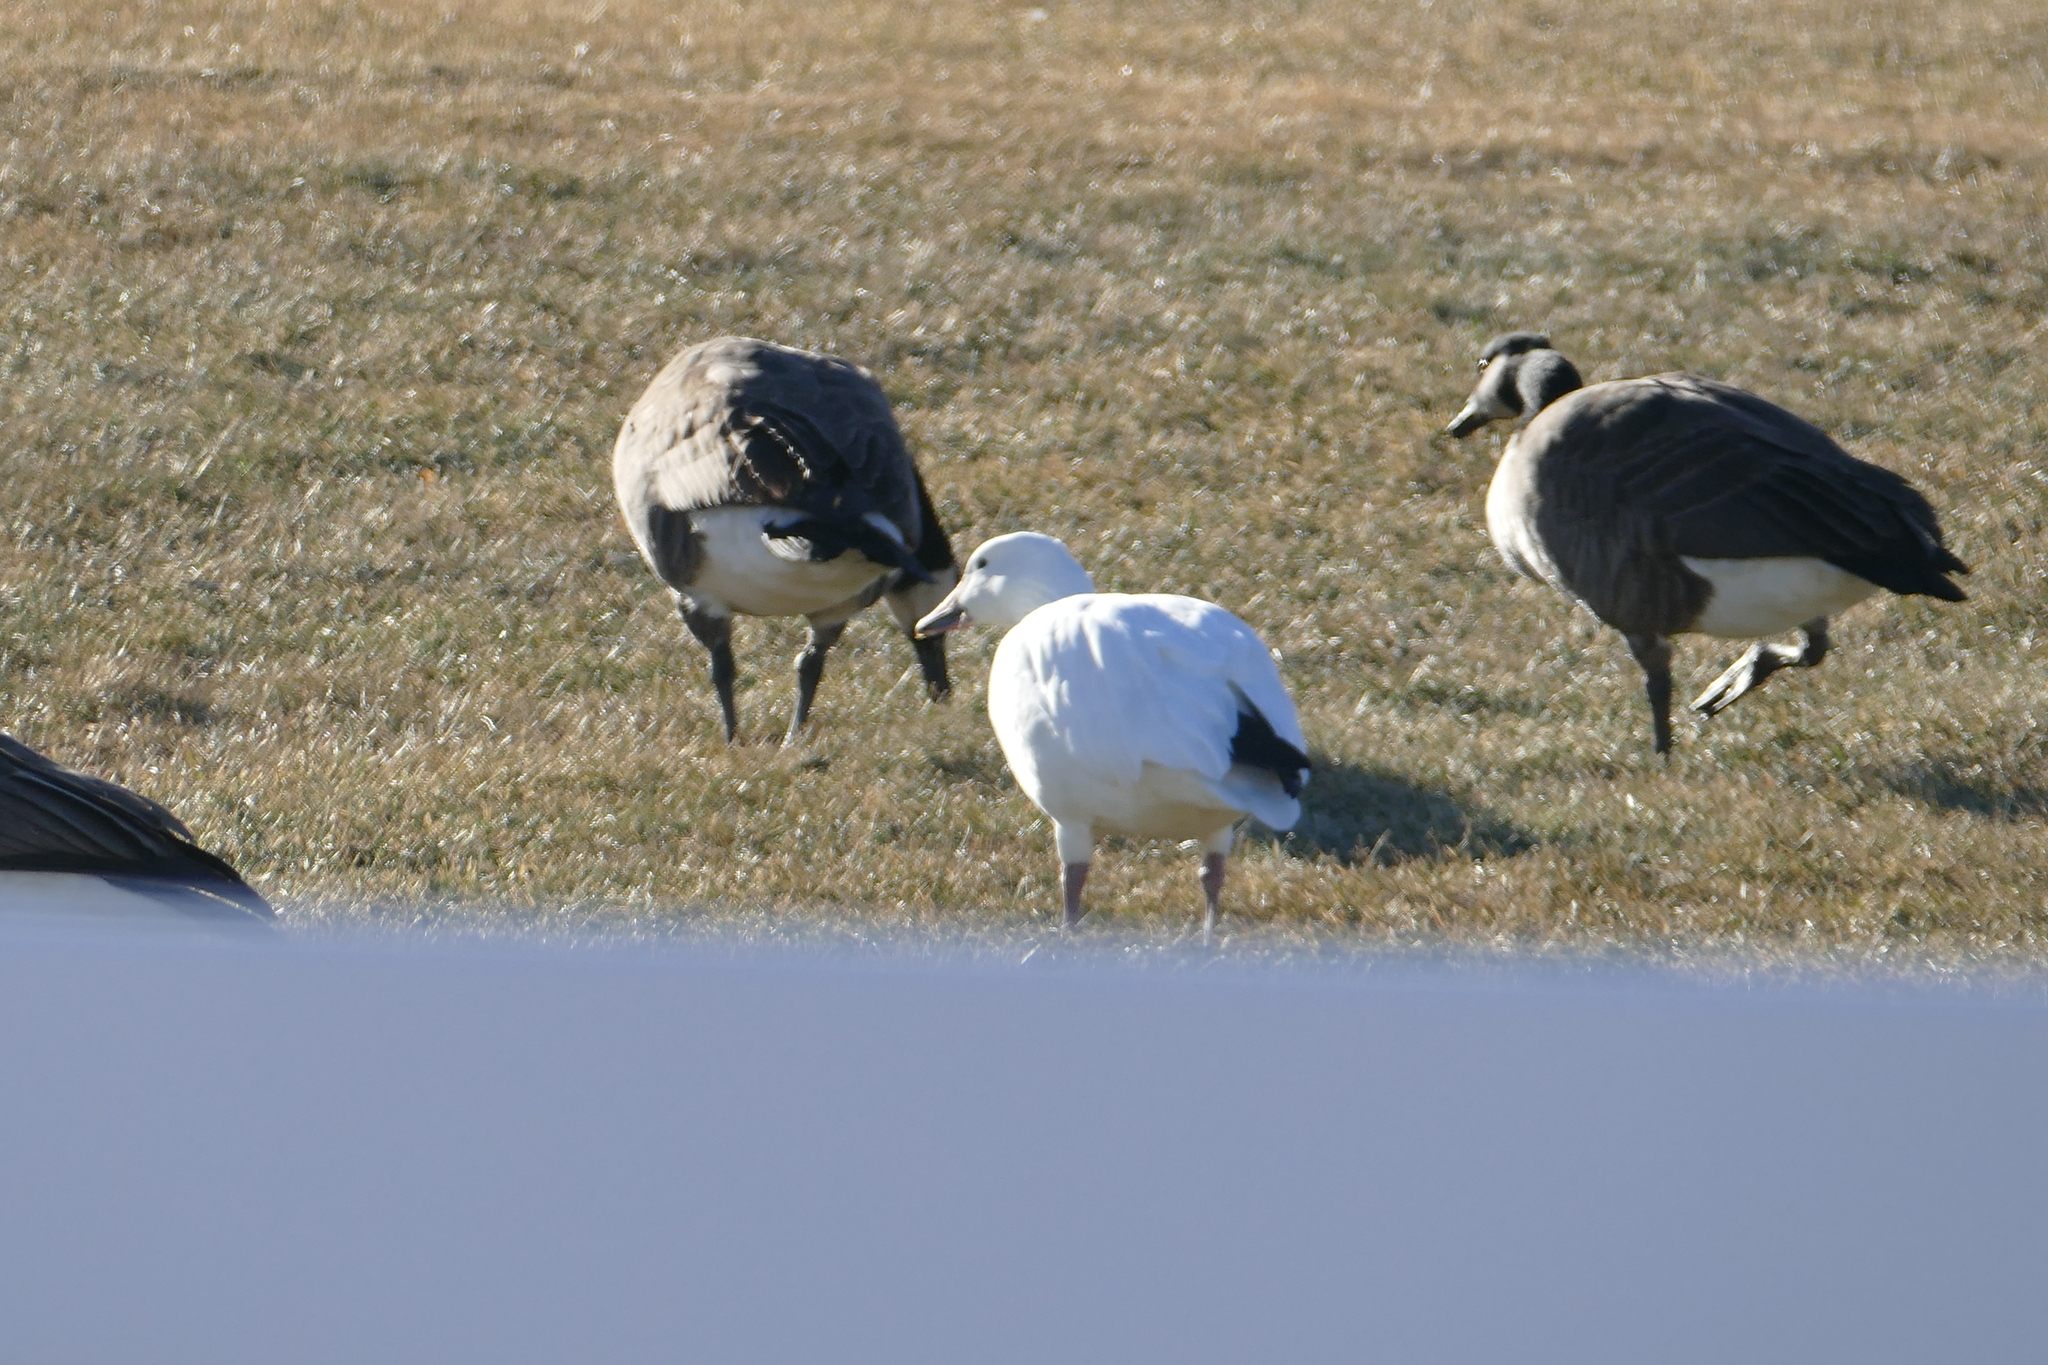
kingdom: Animalia
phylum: Chordata
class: Aves
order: Anseriformes
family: Anatidae
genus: Branta
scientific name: Branta canadensis
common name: Canada goose
